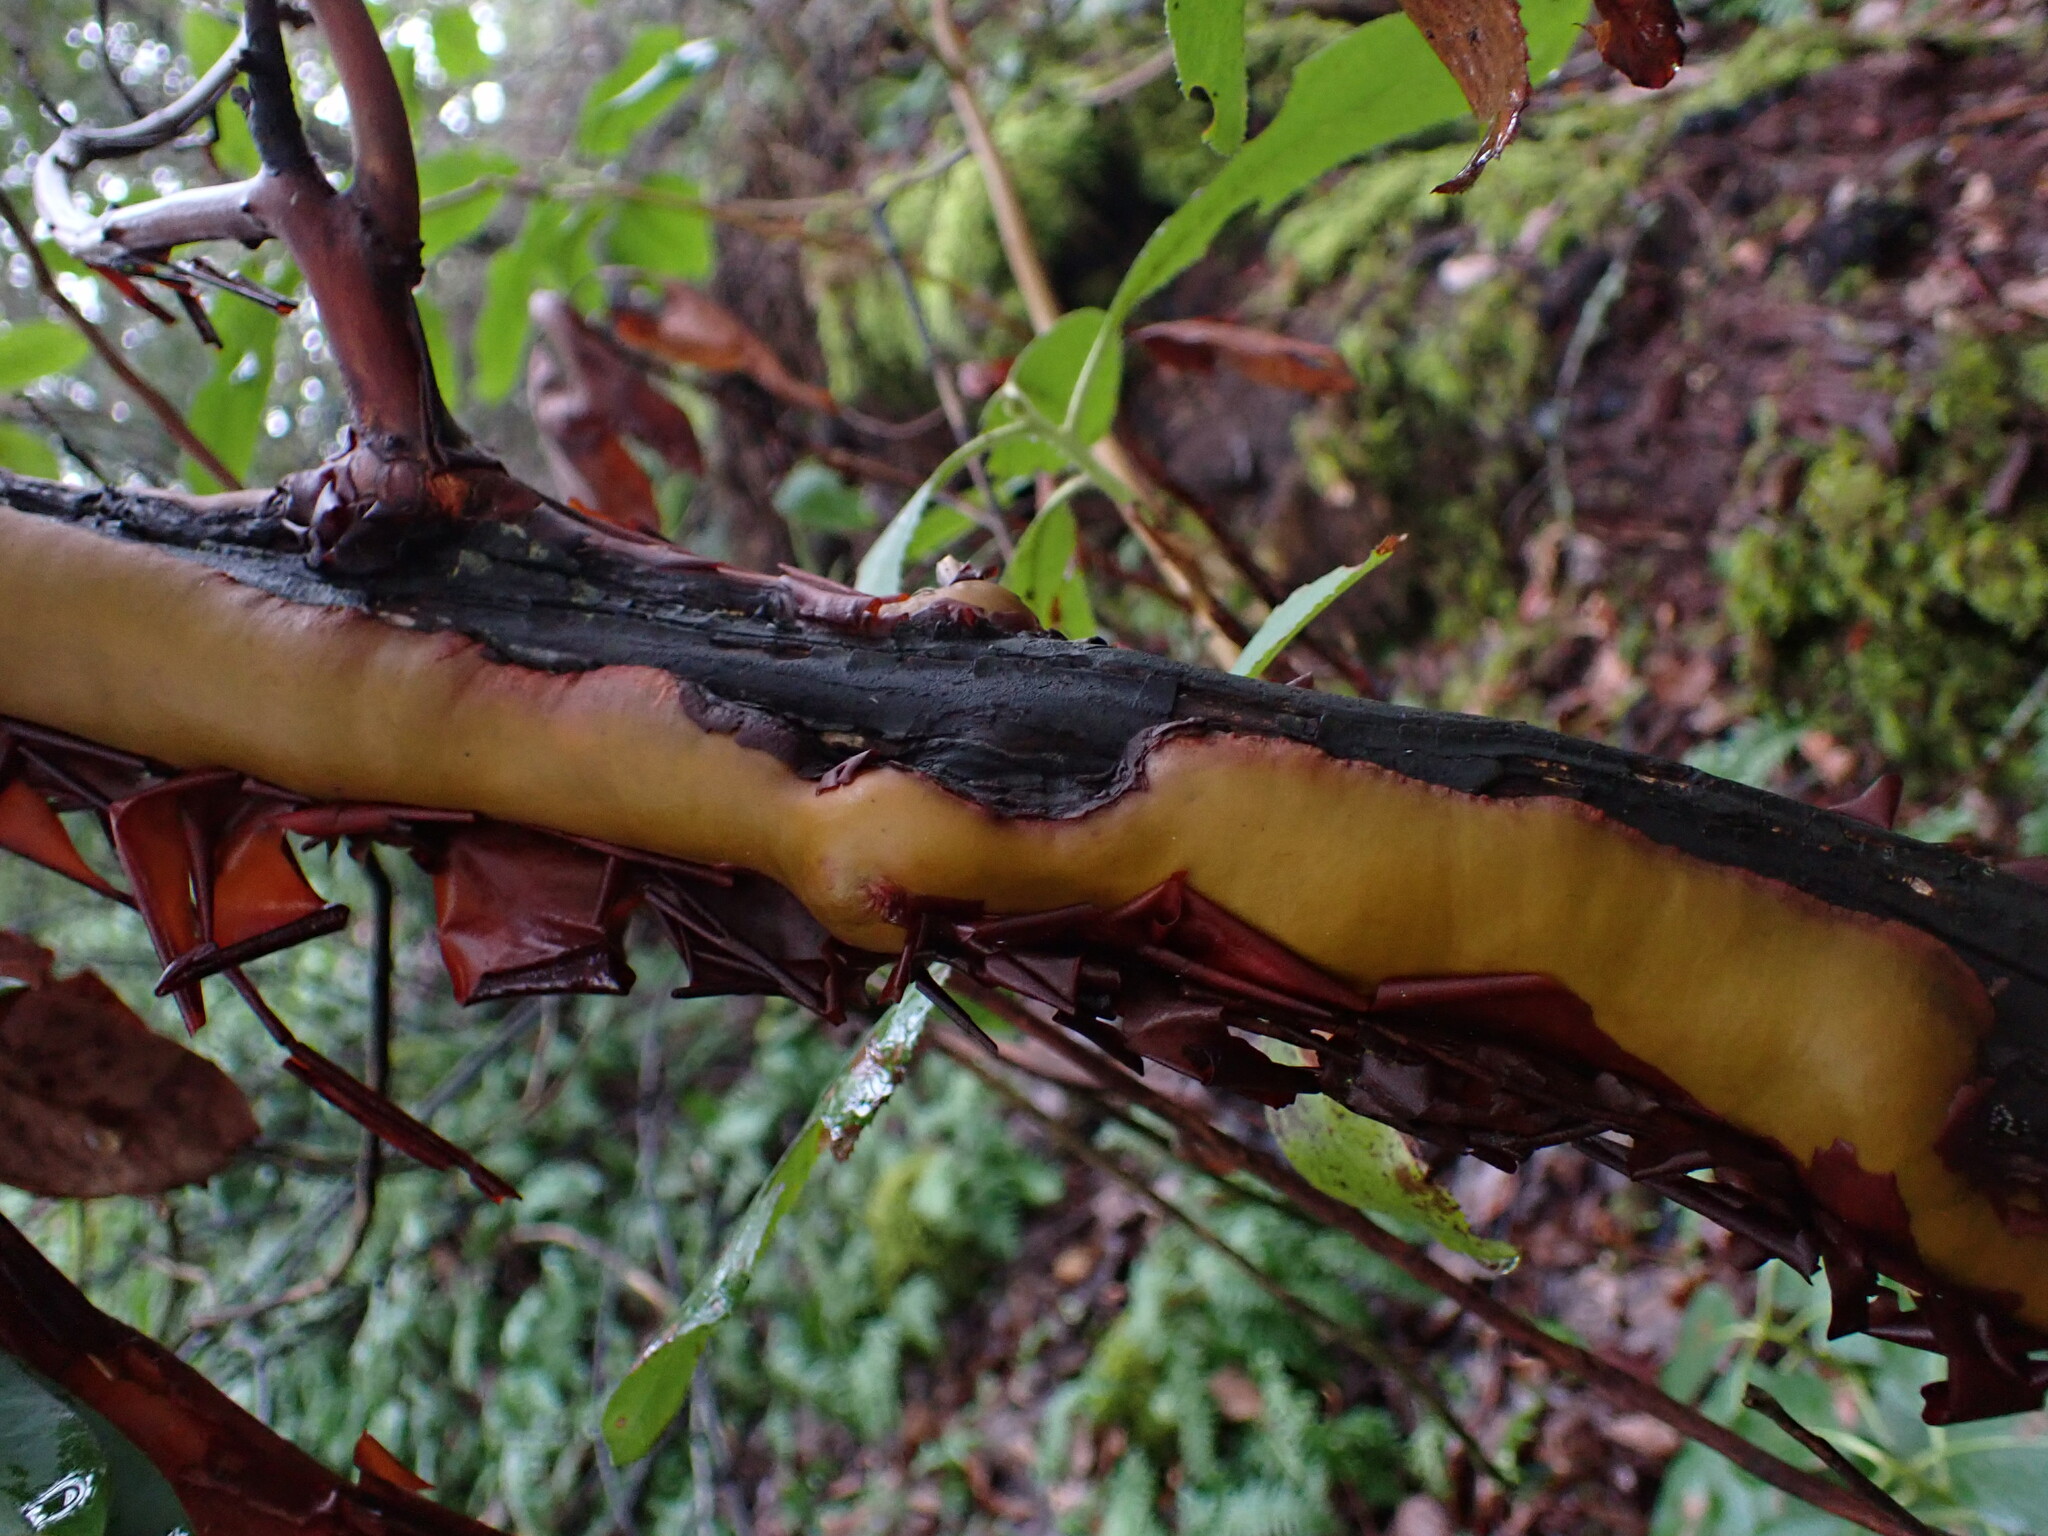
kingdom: Plantae
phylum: Tracheophyta
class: Magnoliopsida
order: Ericales
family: Ericaceae
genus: Arbutus
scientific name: Arbutus menziesii
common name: Pacific madrone
